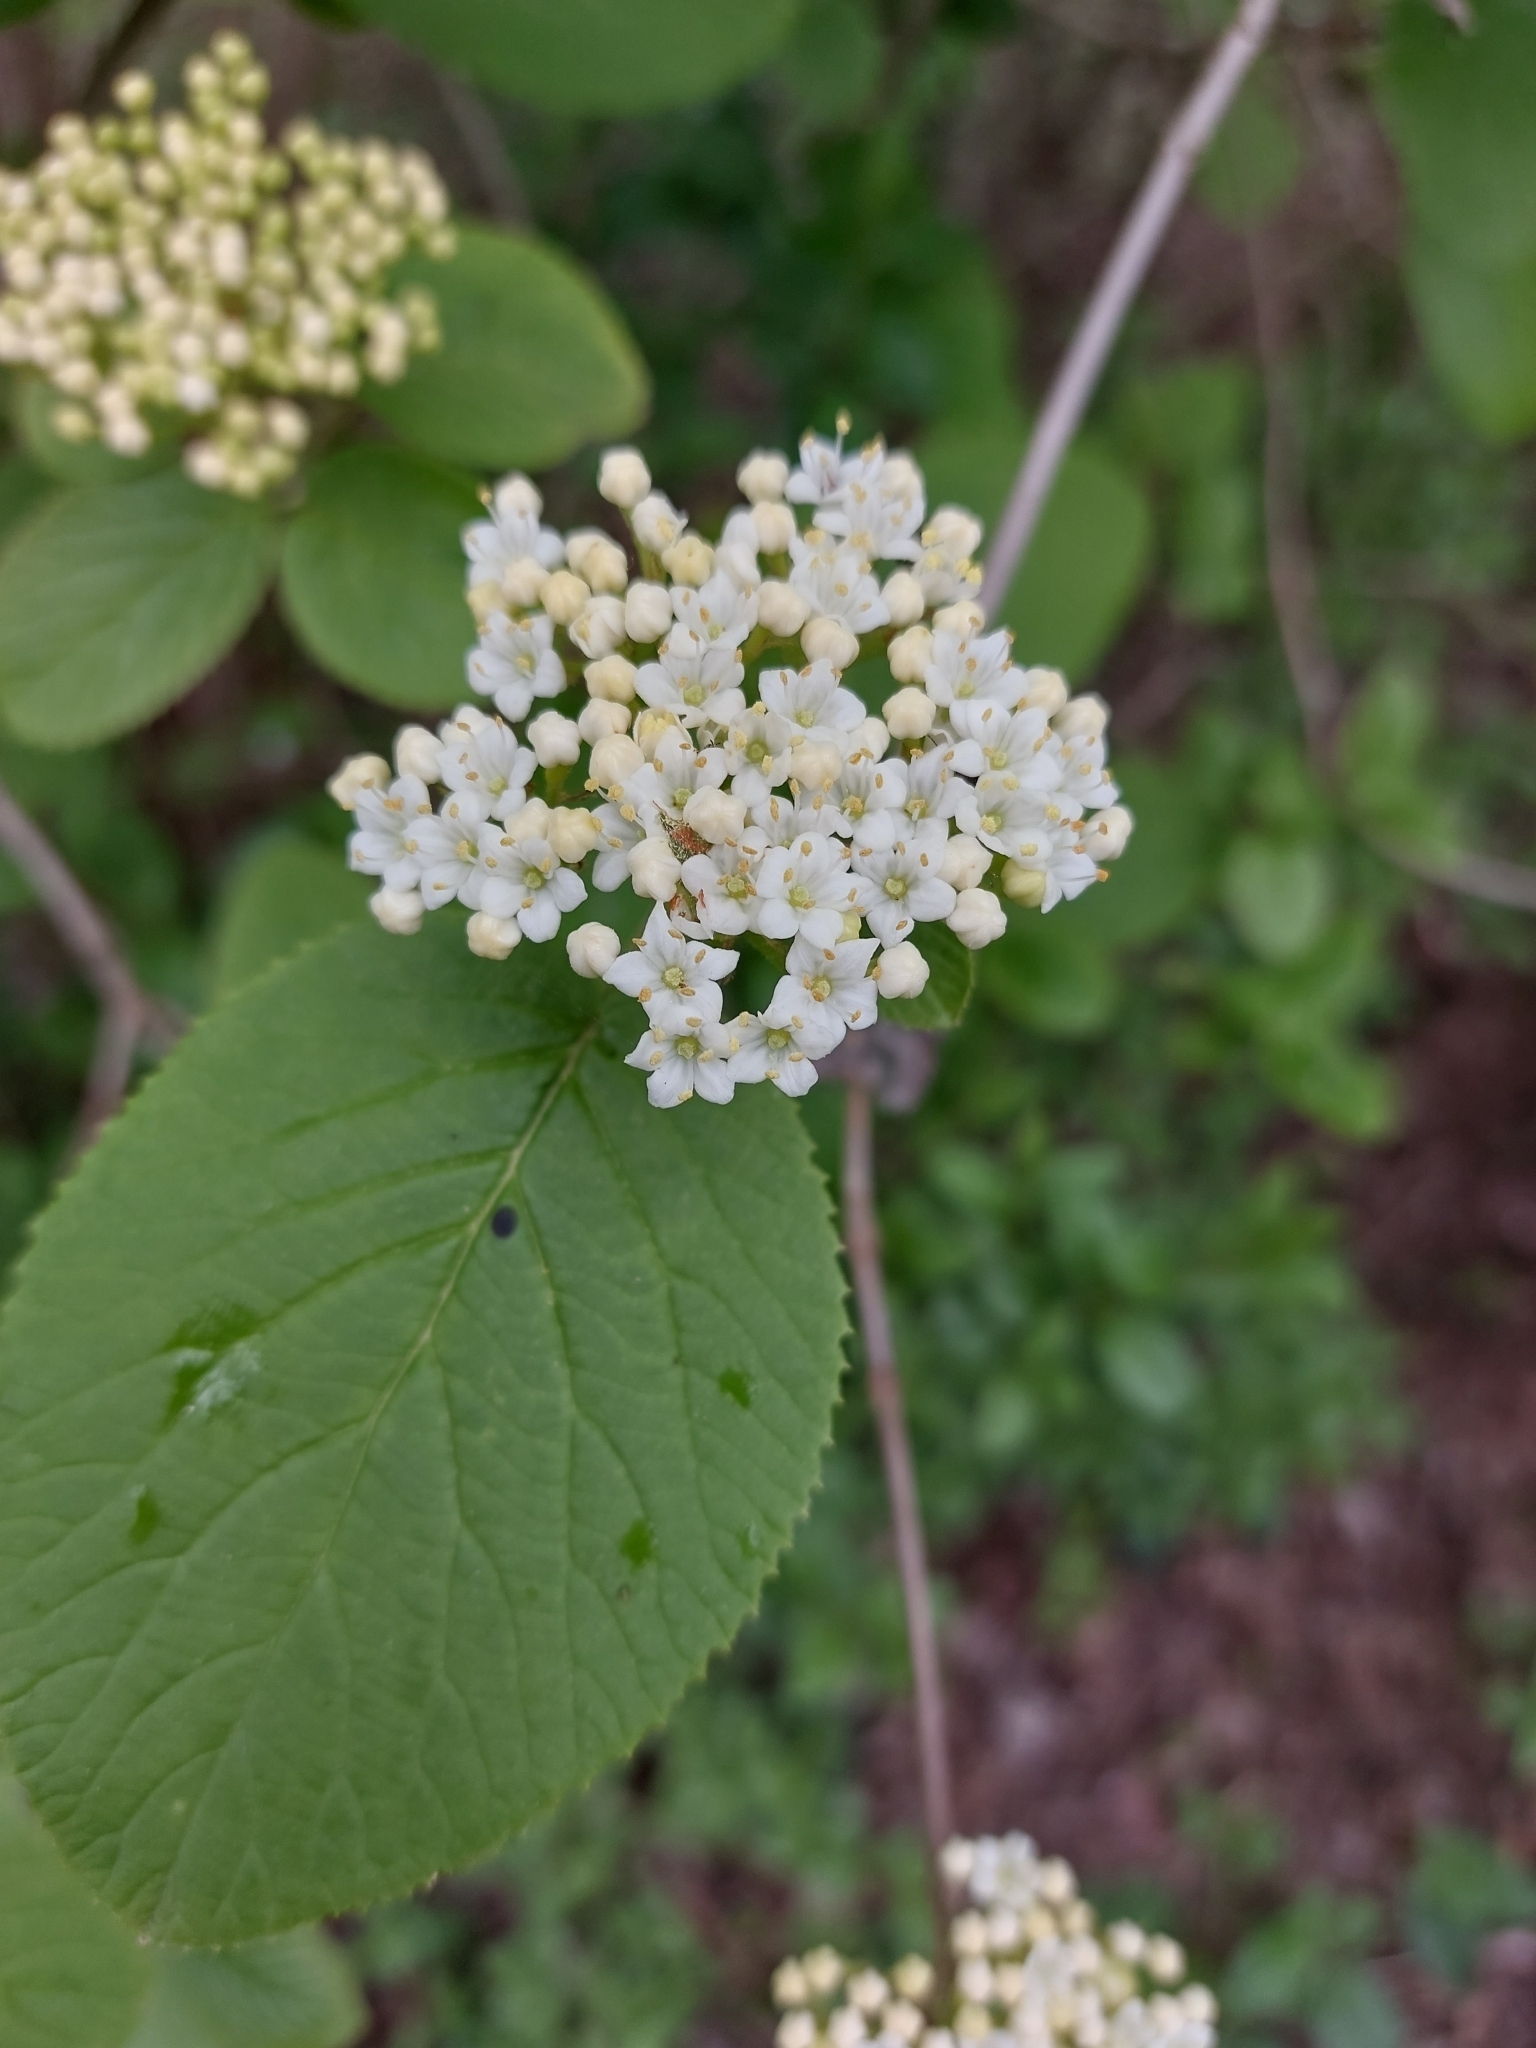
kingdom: Plantae
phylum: Tracheophyta
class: Magnoliopsida
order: Dipsacales
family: Viburnaceae
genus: Viburnum
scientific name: Viburnum lantana
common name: Wayfaring tree
